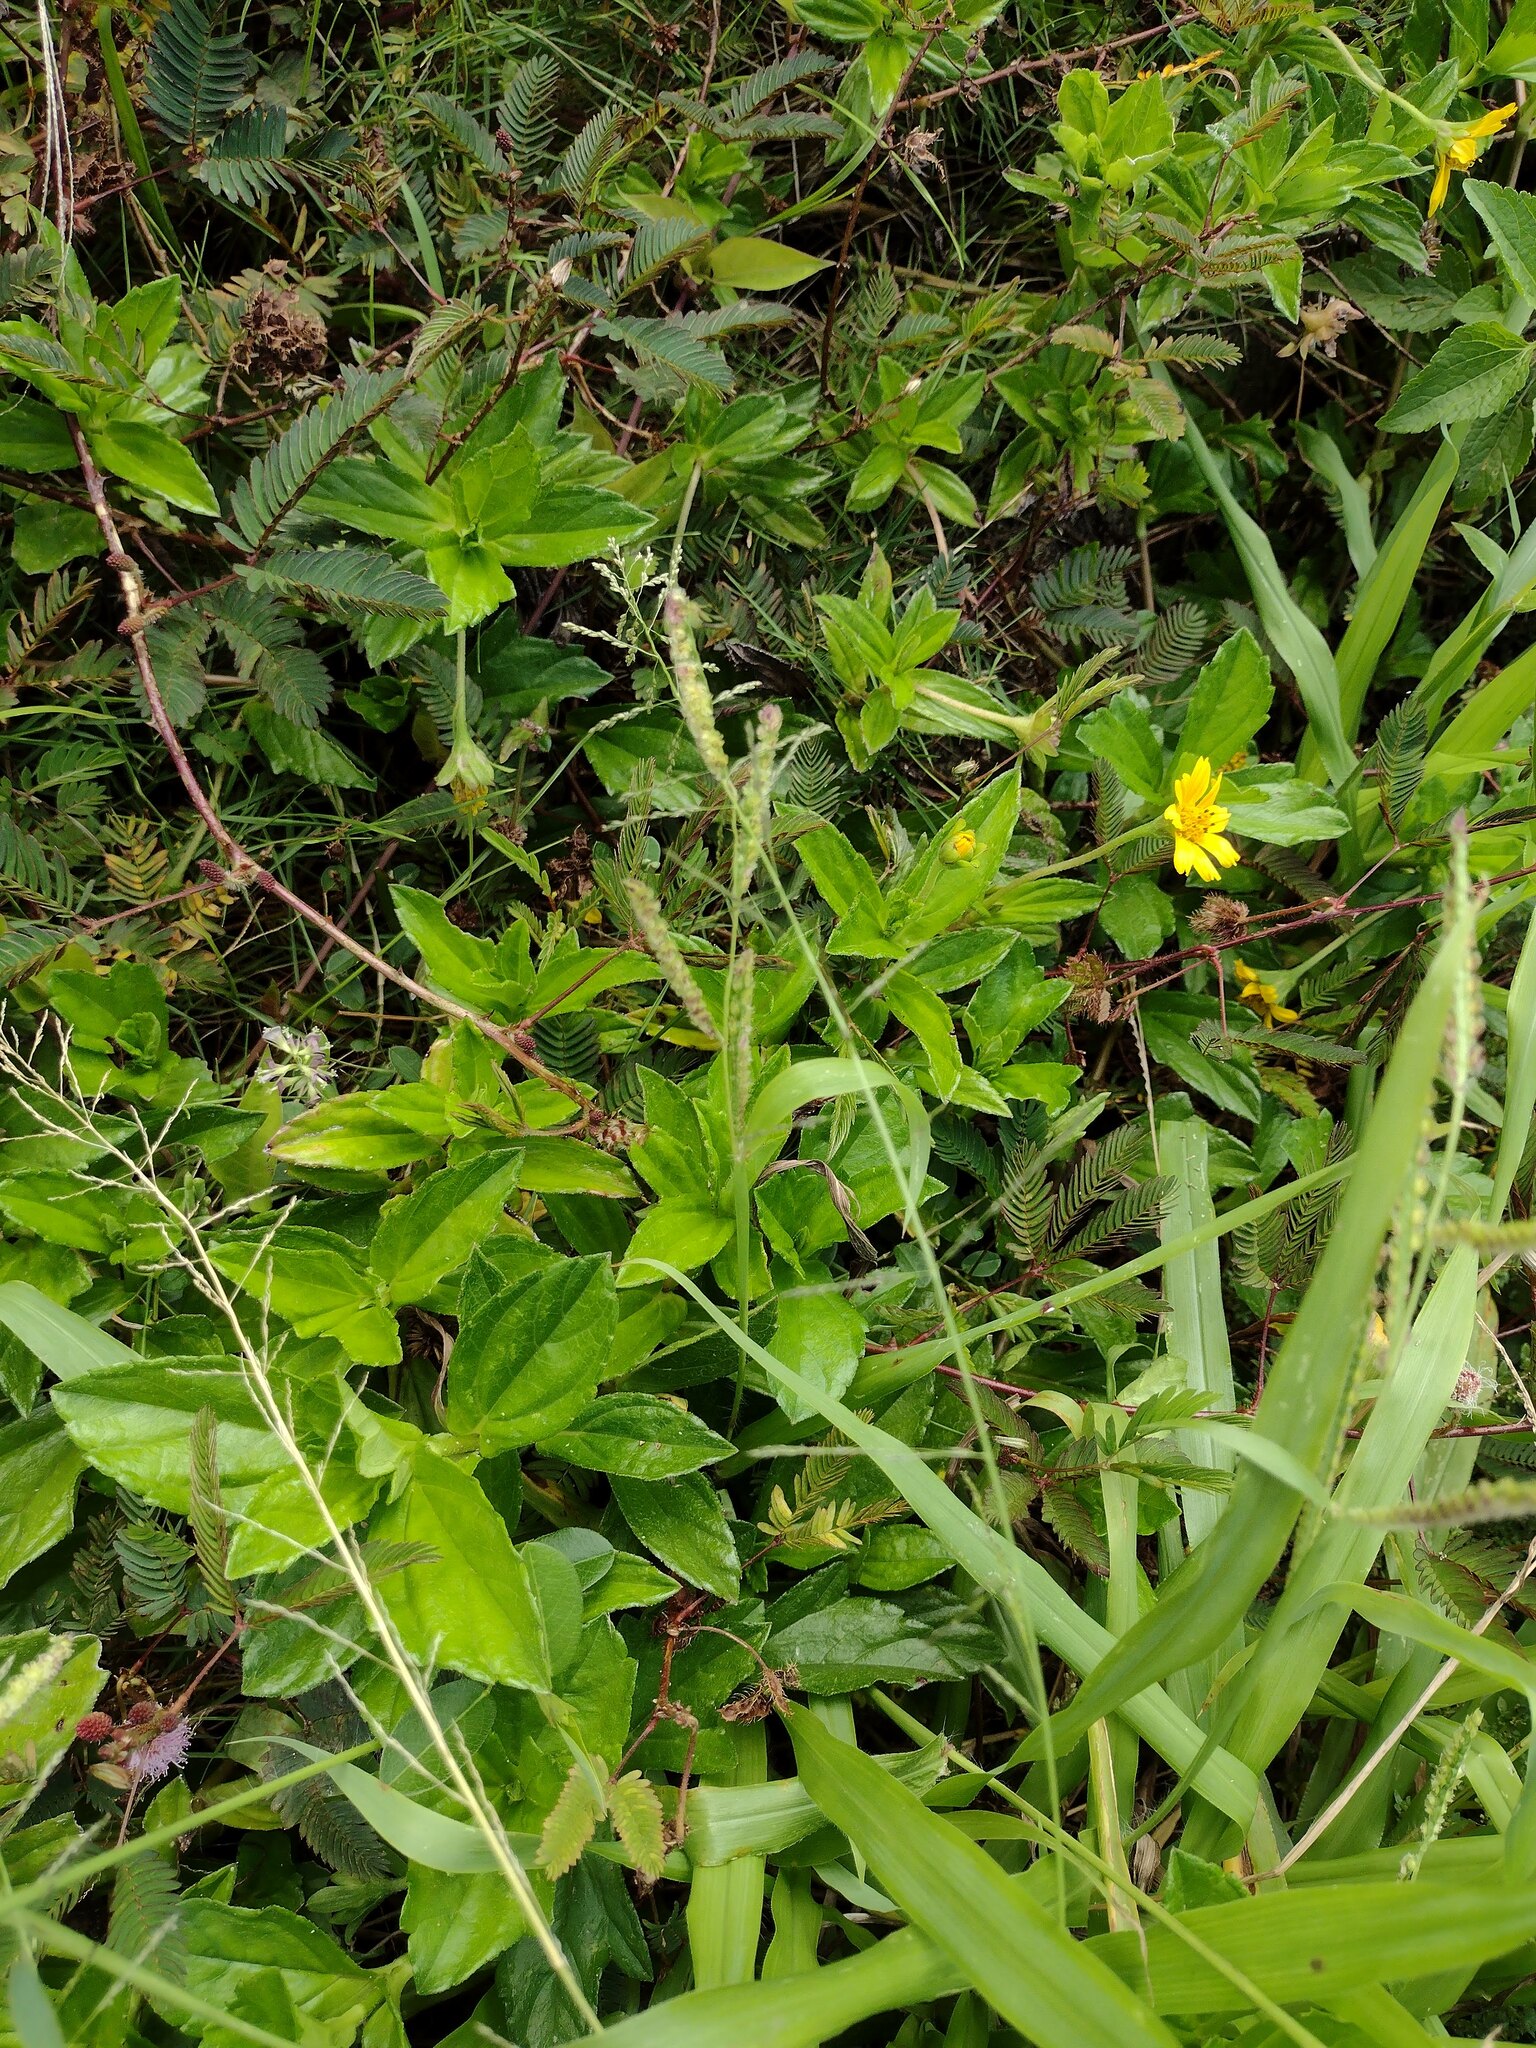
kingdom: Plantae
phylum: Tracheophyta
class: Liliopsida
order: Poales
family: Poaceae
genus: Paspalum
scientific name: Paspalum fimbriatum
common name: Panama crowngrass
